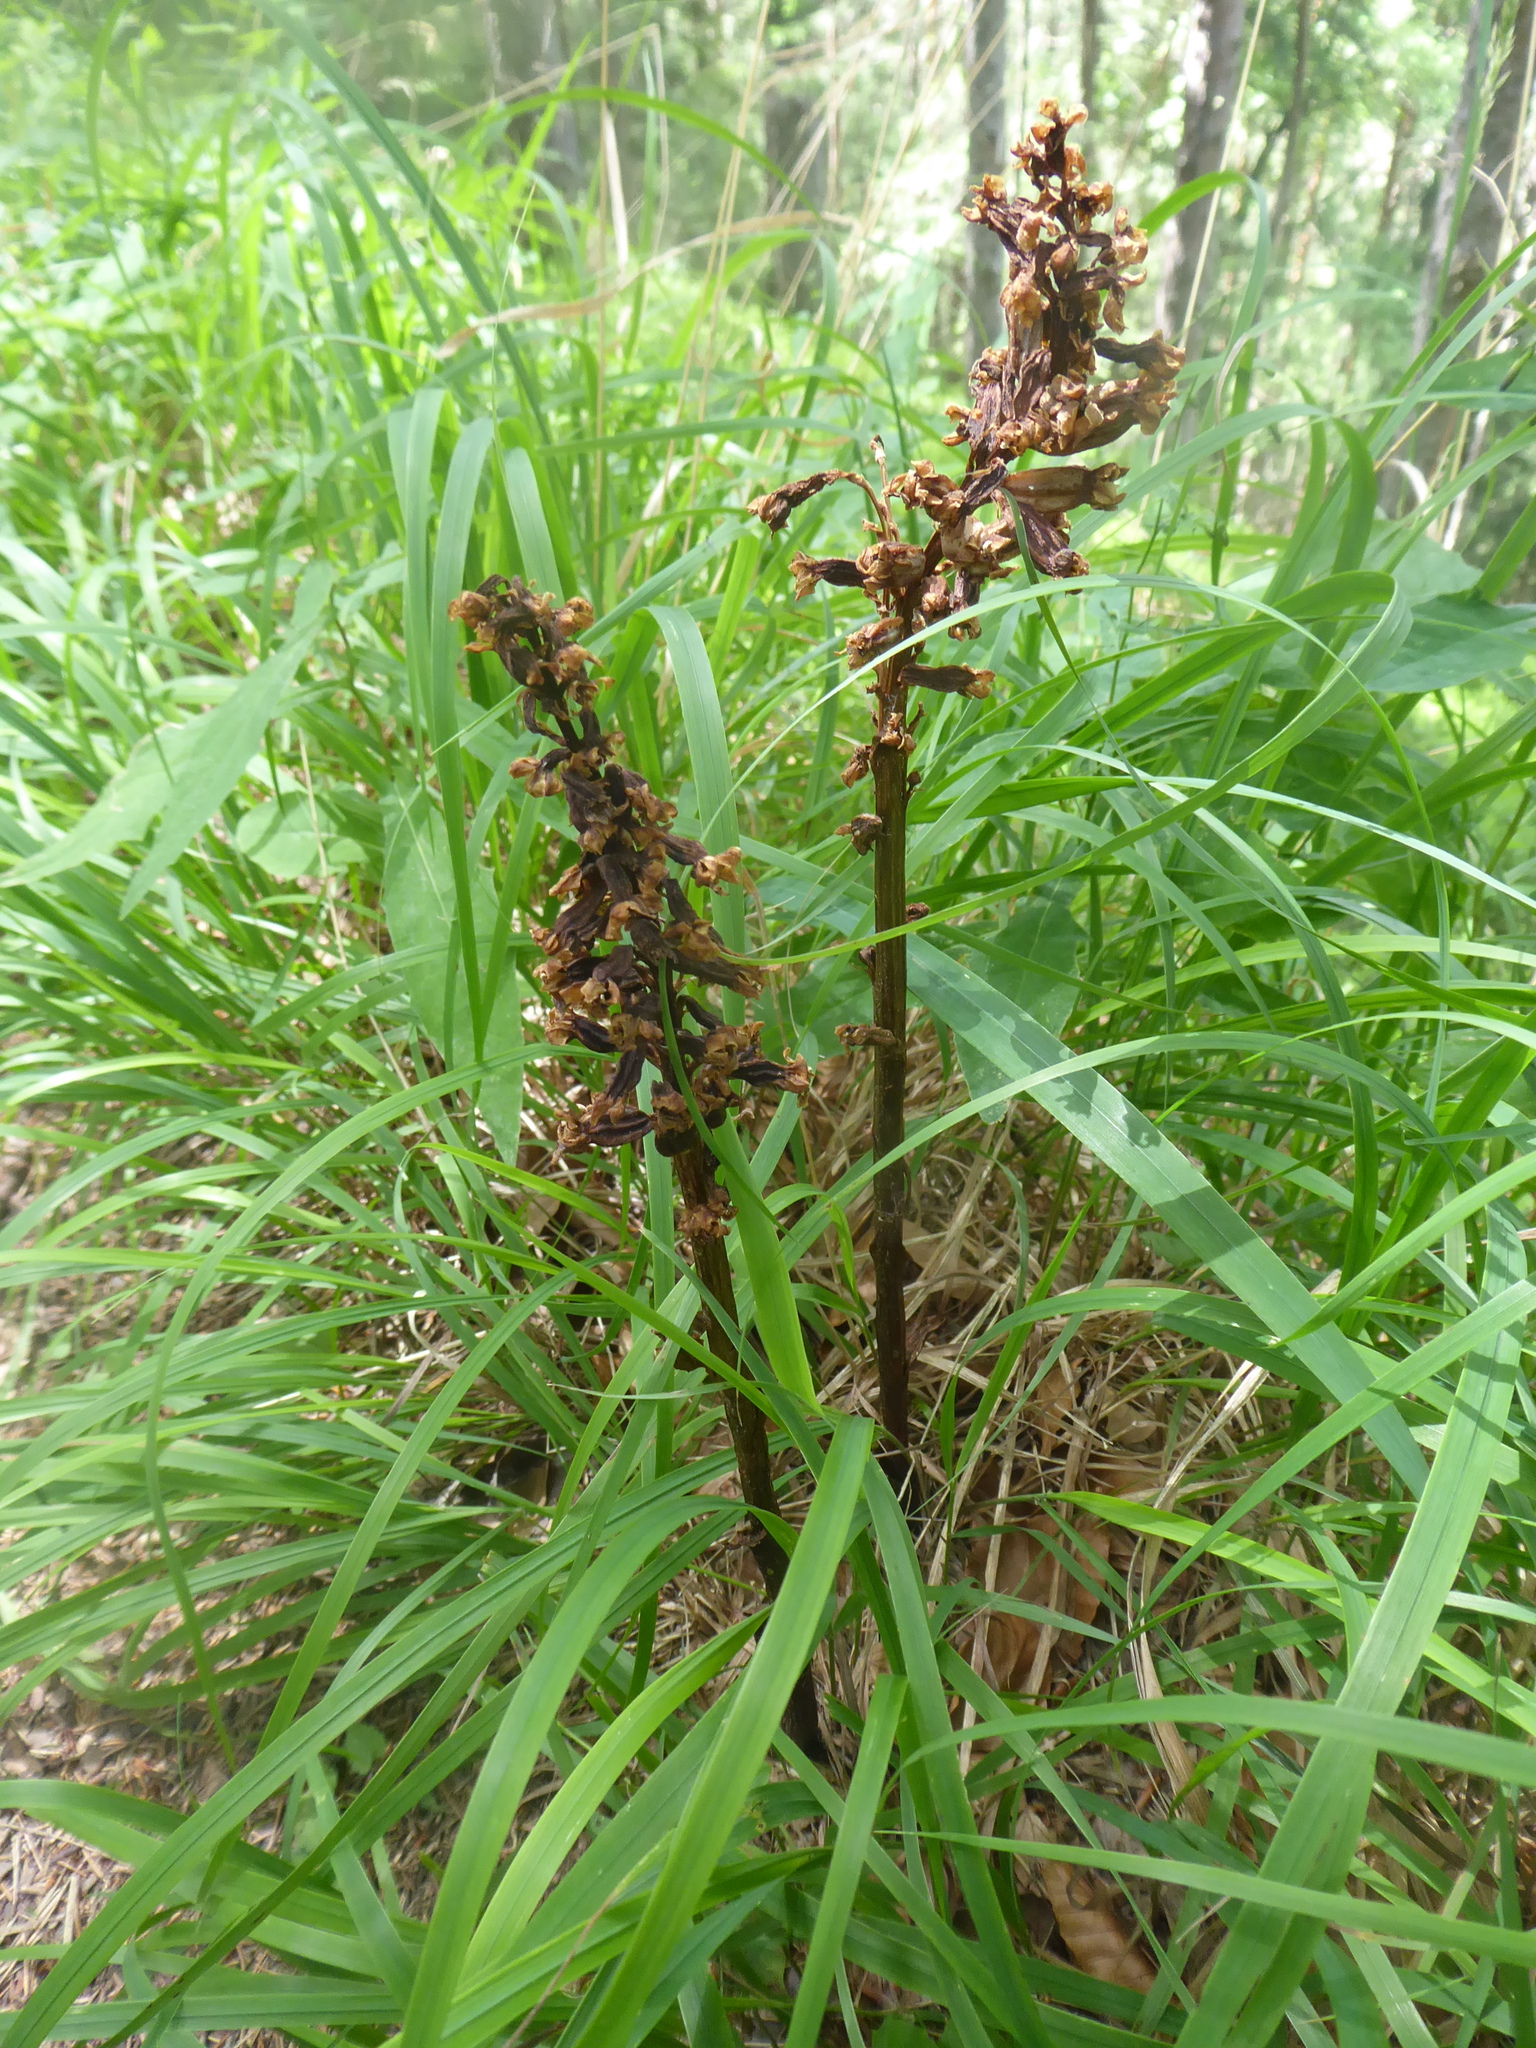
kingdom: Plantae
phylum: Tracheophyta
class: Liliopsida
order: Asparagales
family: Orchidaceae
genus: Neottia
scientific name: Neottia nidus-avis
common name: Bird's-nest orchid
